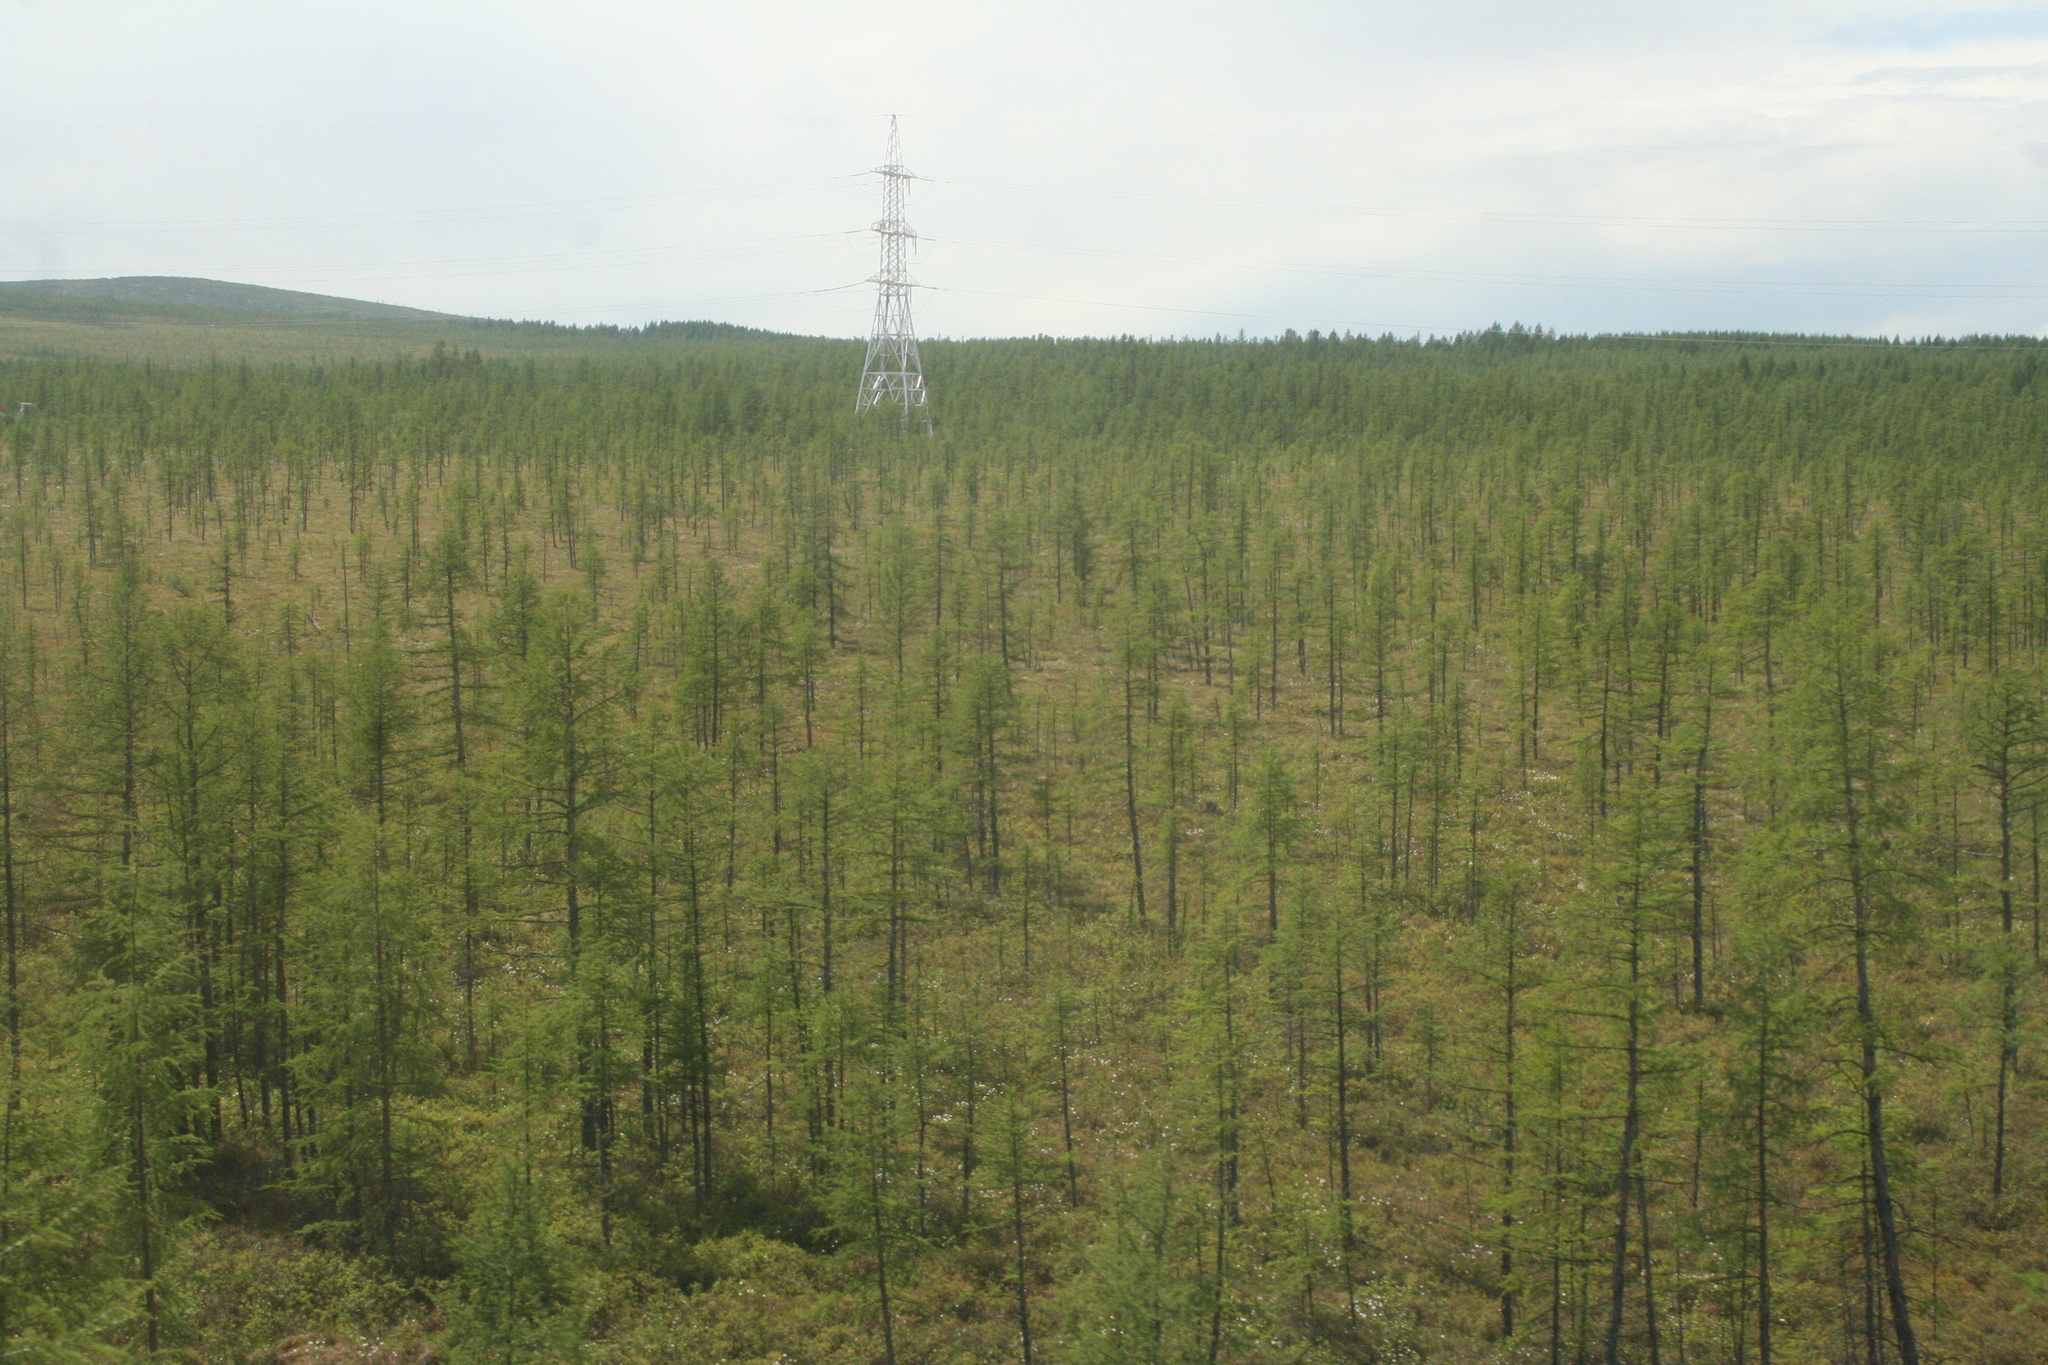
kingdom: Plantae
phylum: Tracheophyta
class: Pinopsida
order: Pinales
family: Pinaceae
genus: Larix
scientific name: Larix gmelinii
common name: Dahurian larch
